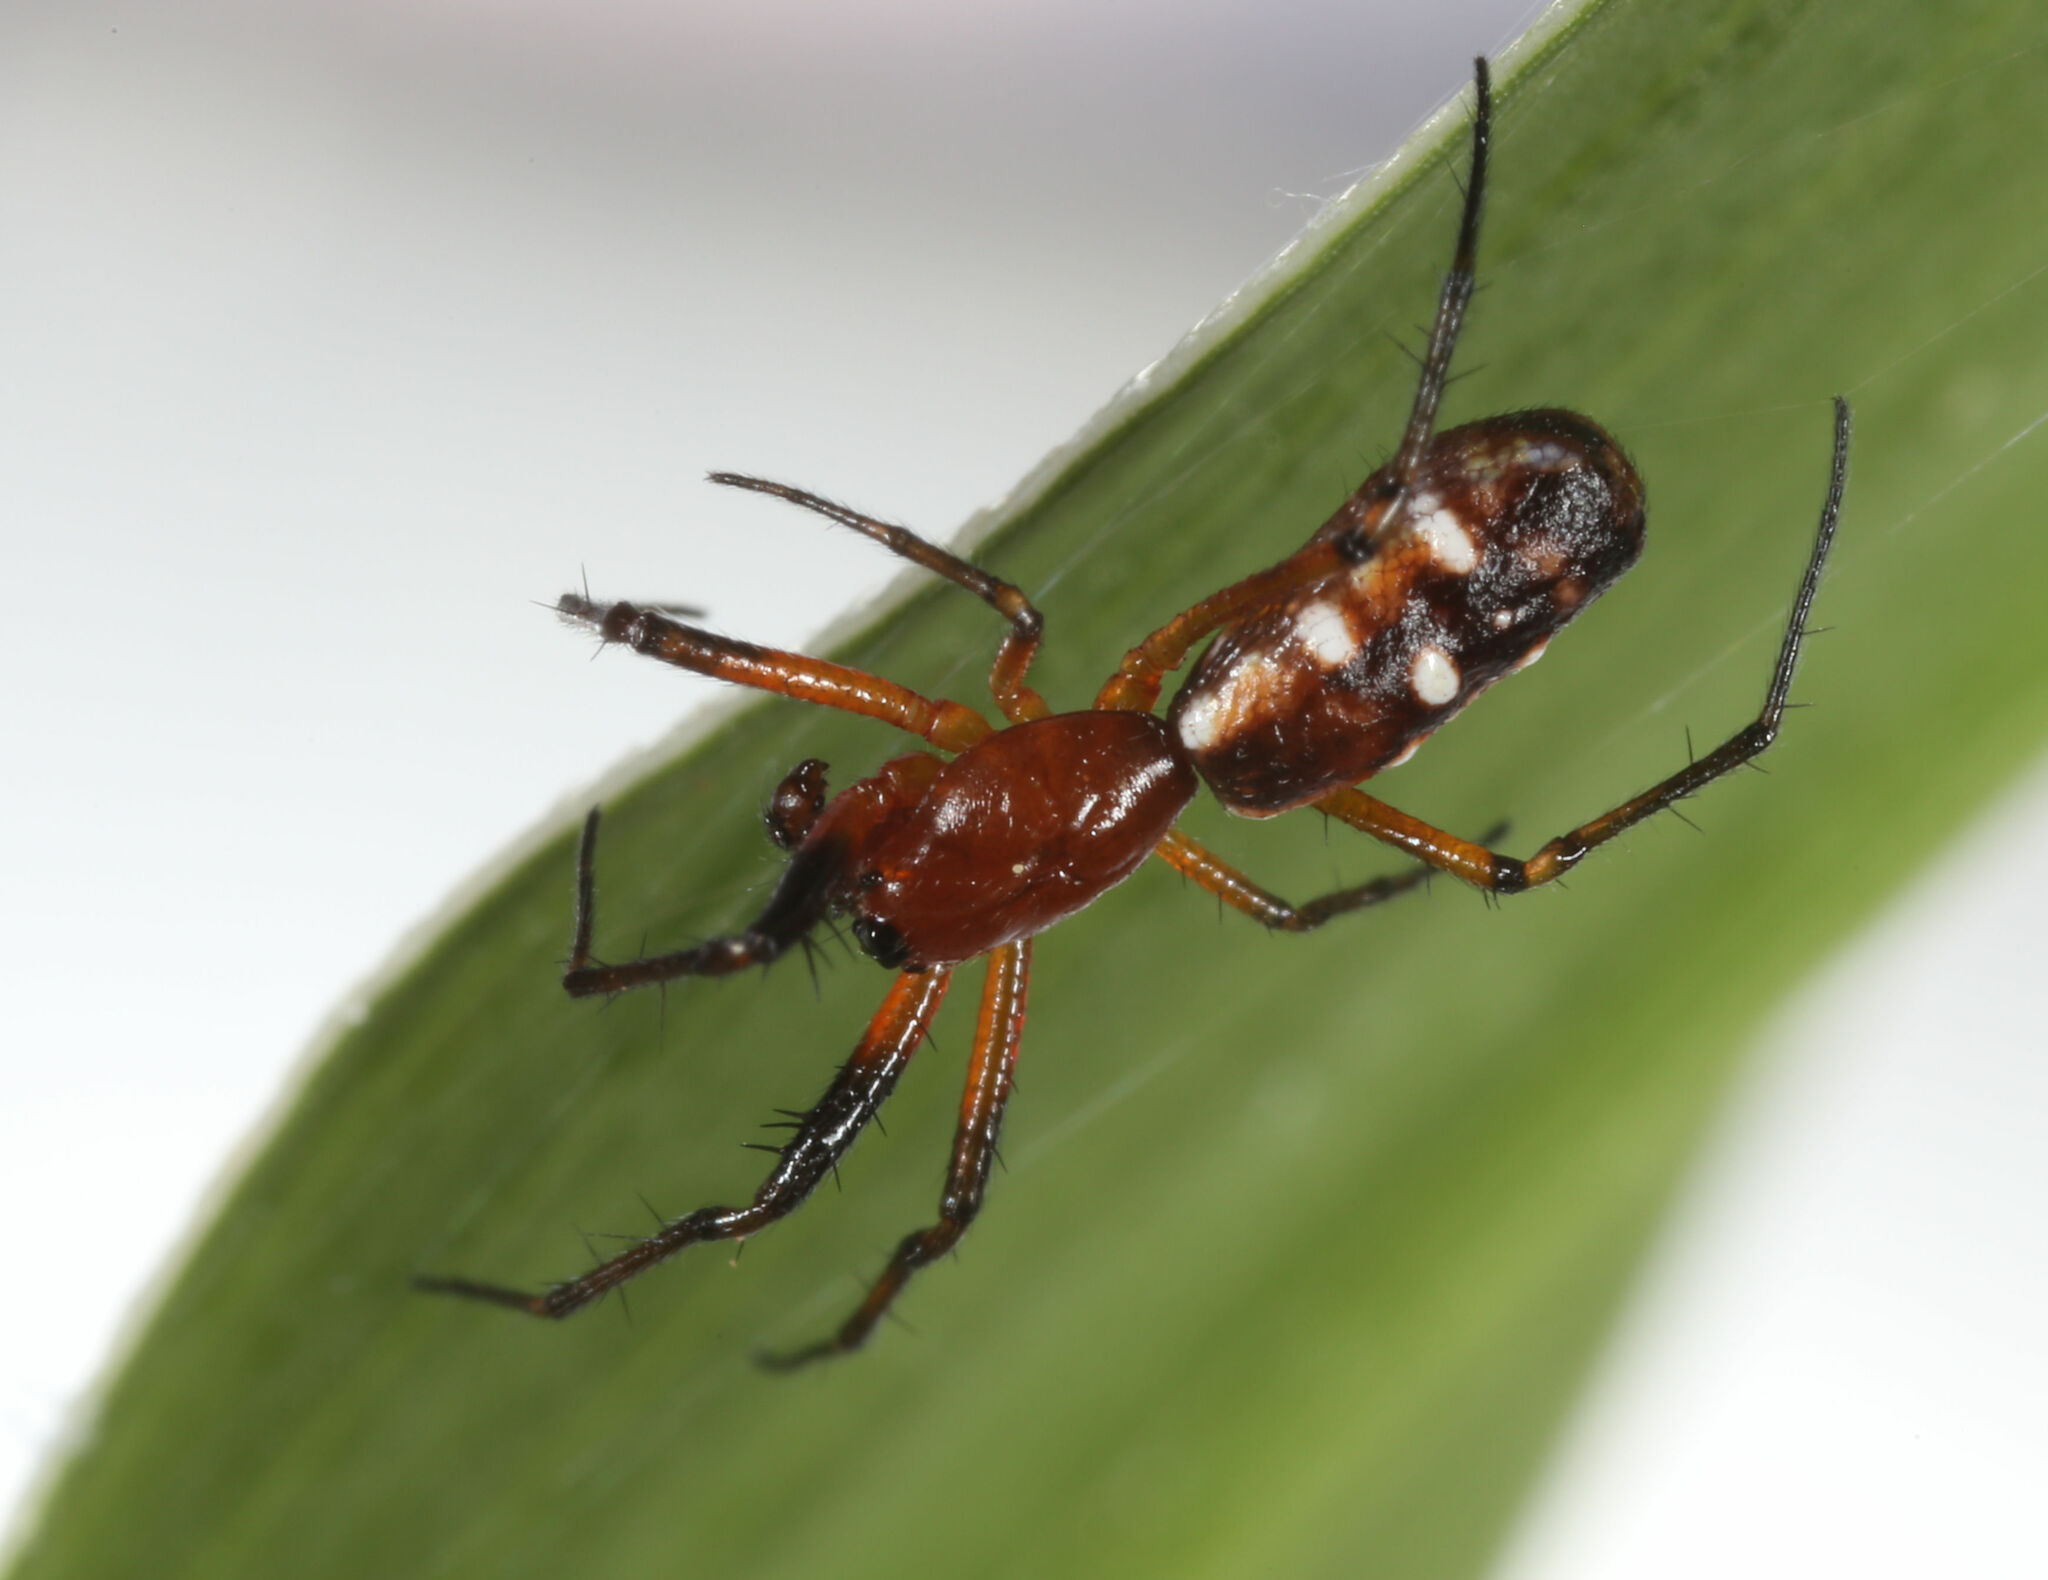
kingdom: Animalia
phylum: Arthropoda
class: Arachnida
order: Araneae
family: Araneidae
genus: Micrathena
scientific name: Micrathena funebris
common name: Orb weavers
